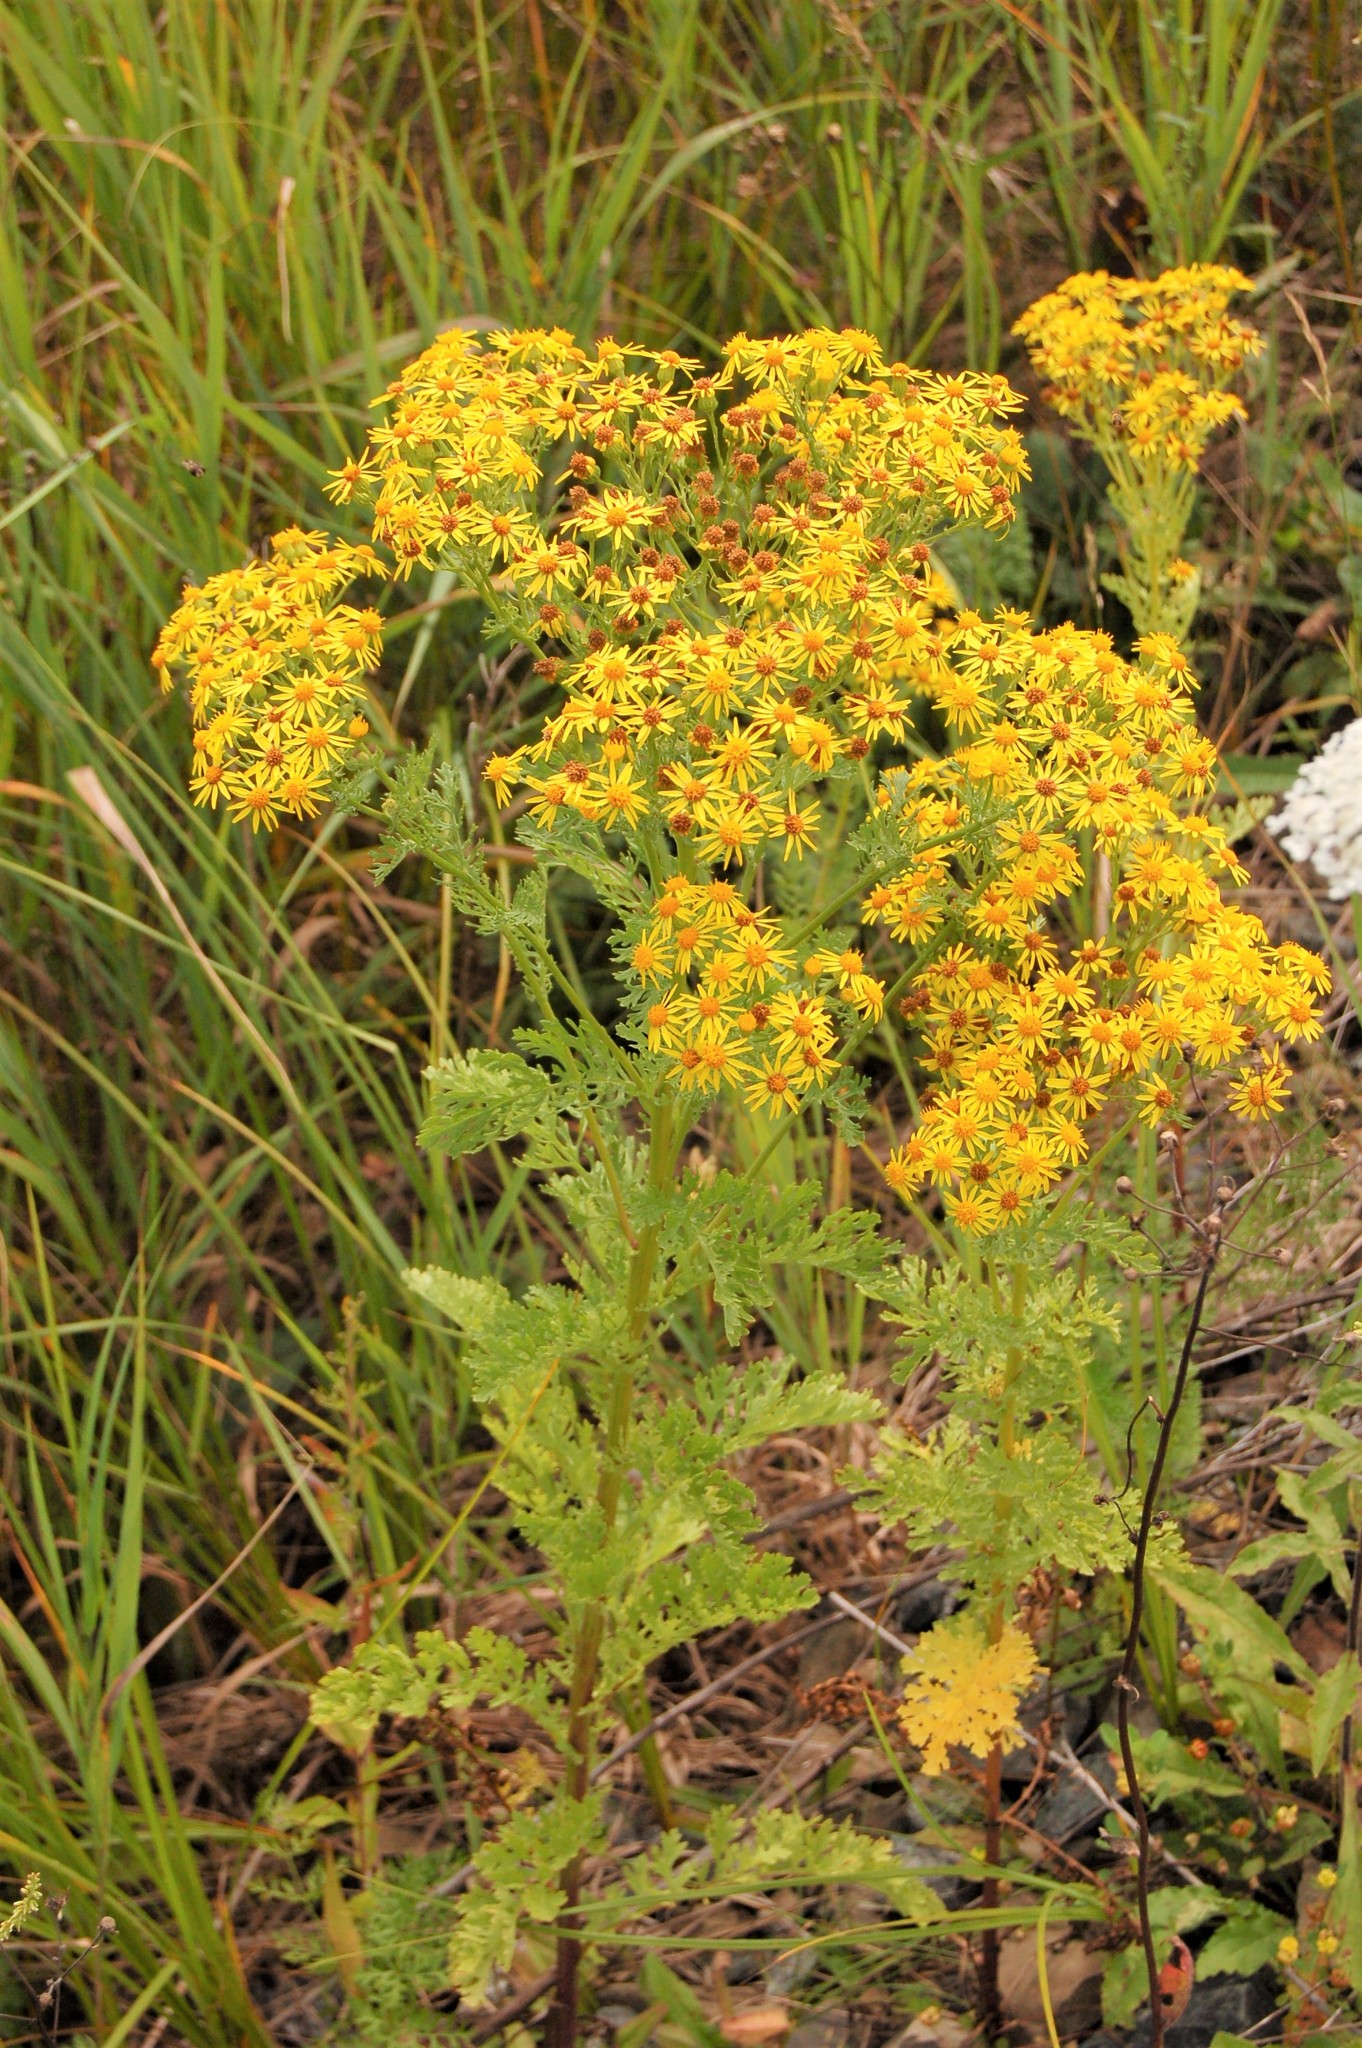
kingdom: Plantae
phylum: Tracheophyta
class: Magnoliopsida
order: Asterales
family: Asteraceae
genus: Jacobaea
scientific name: Jacobaea vulgaris
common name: Stinking willie
